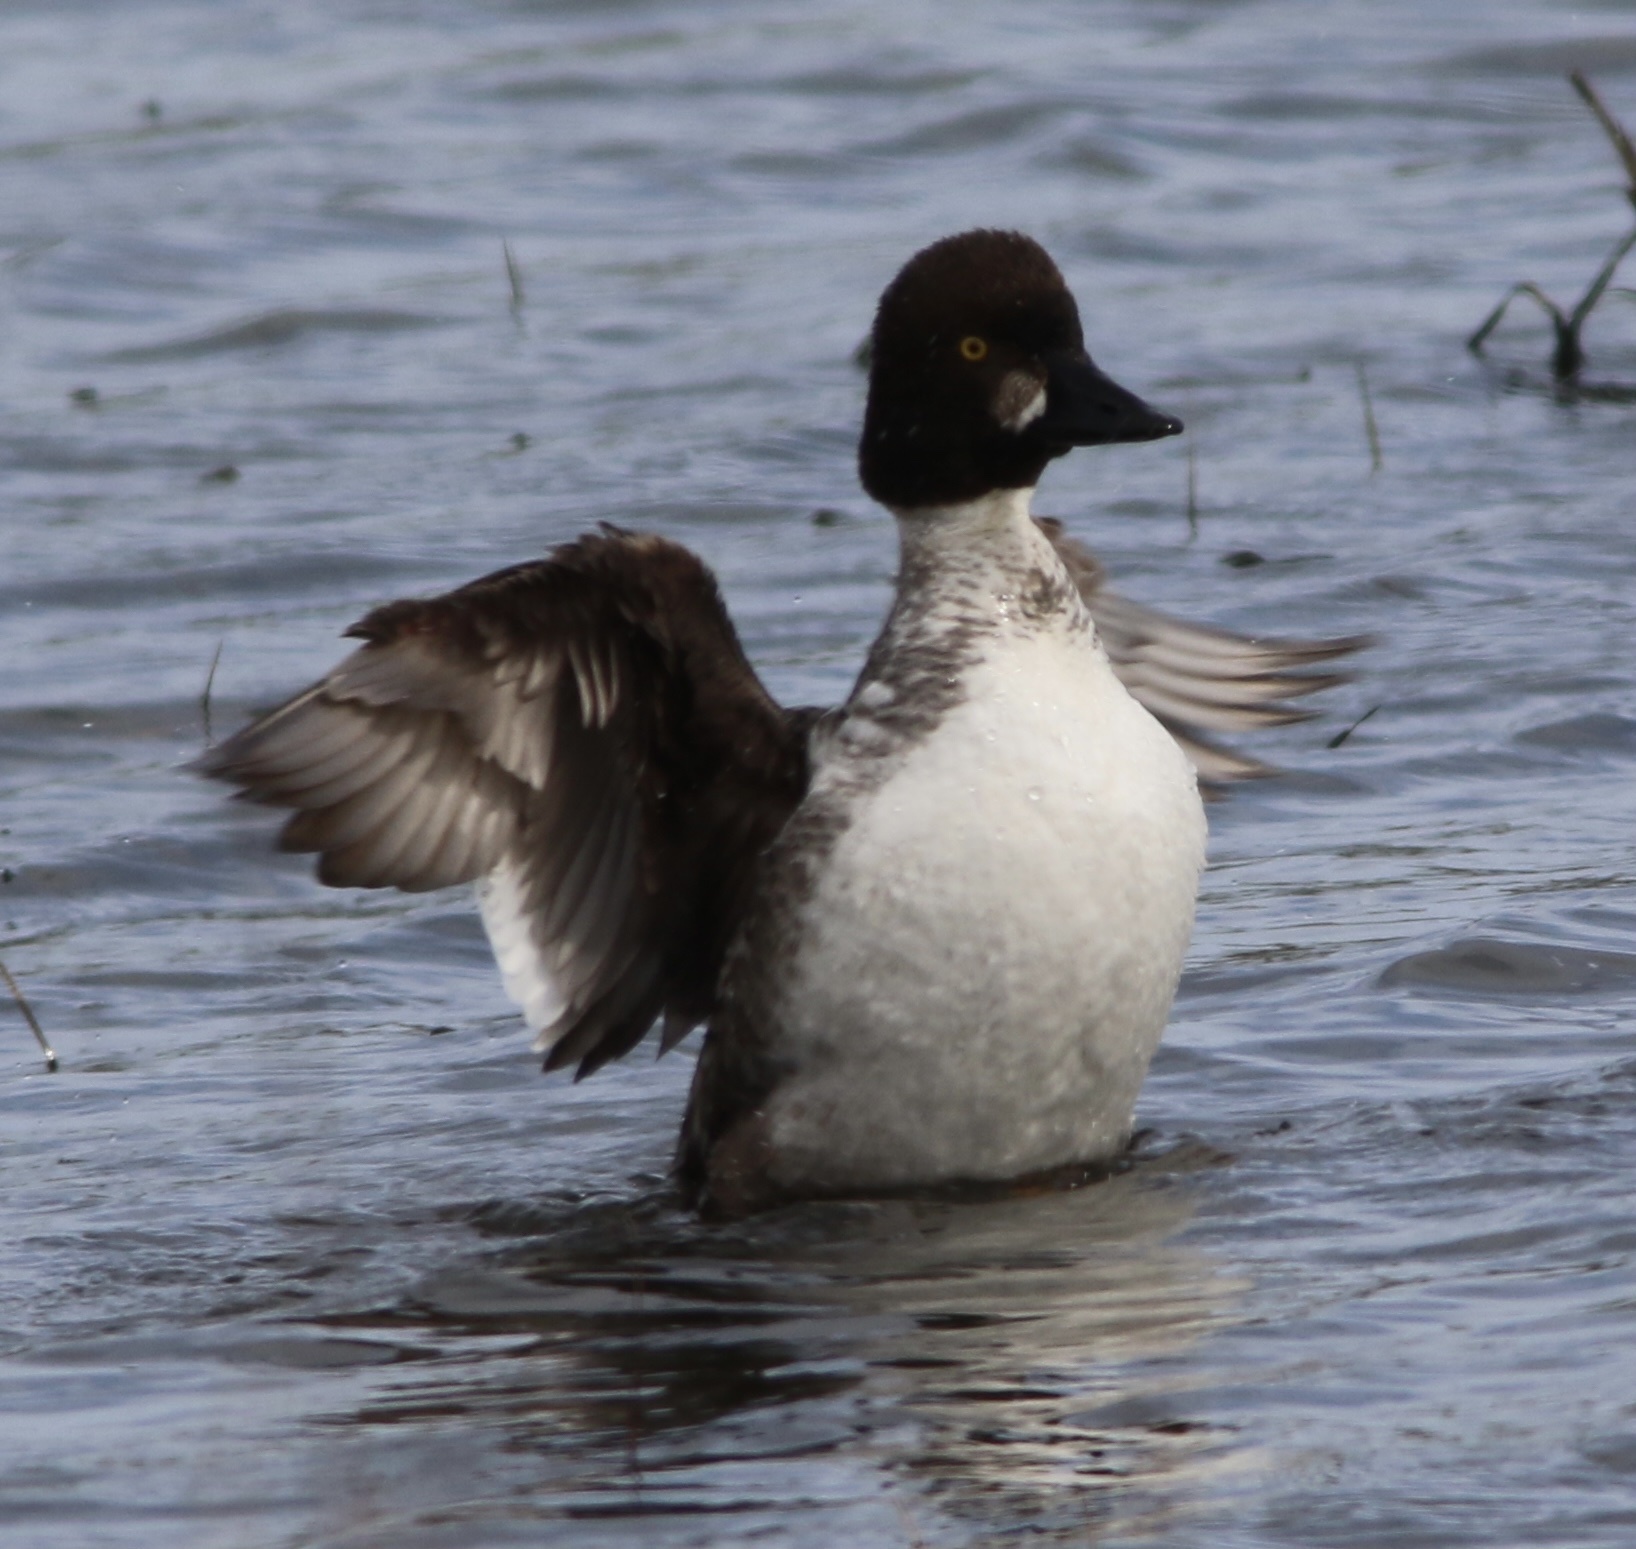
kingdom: Animalia
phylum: Chordata
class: Aves
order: Anseriformes
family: Anatidae
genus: Bucephala
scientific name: Bucephala clangula
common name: Common goldeneye
